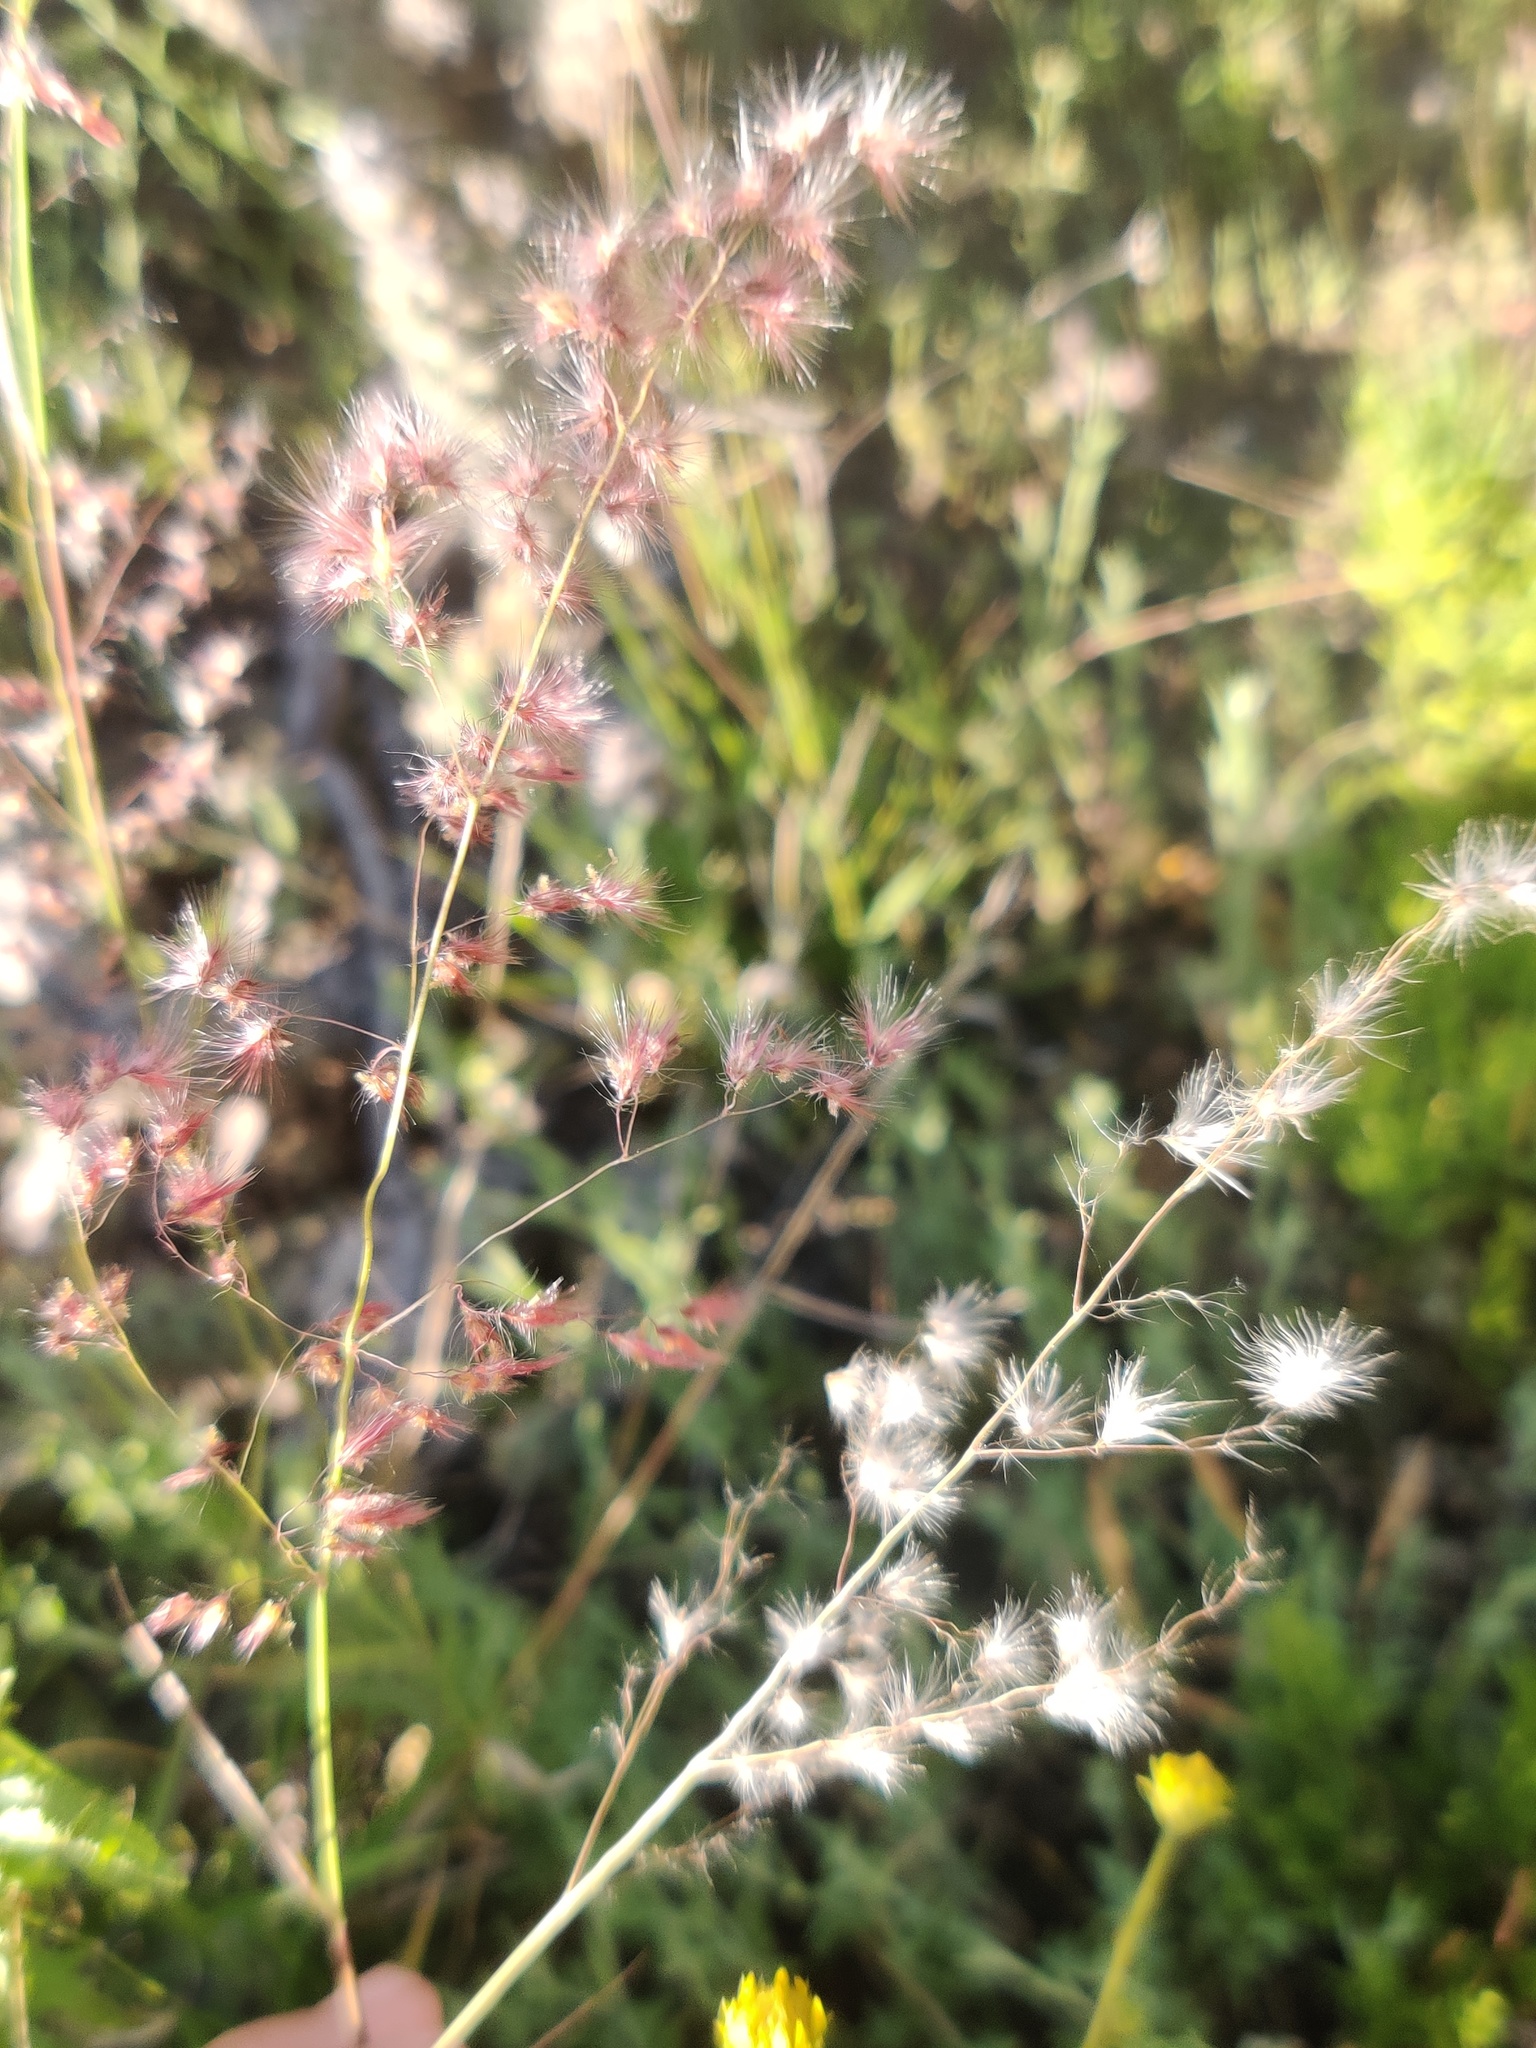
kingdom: Plantae
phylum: Tracheophyta
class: Liliopsida
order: Poales
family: Poaceae
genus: Melinis
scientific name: Melinis repens
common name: Rose natal grass
